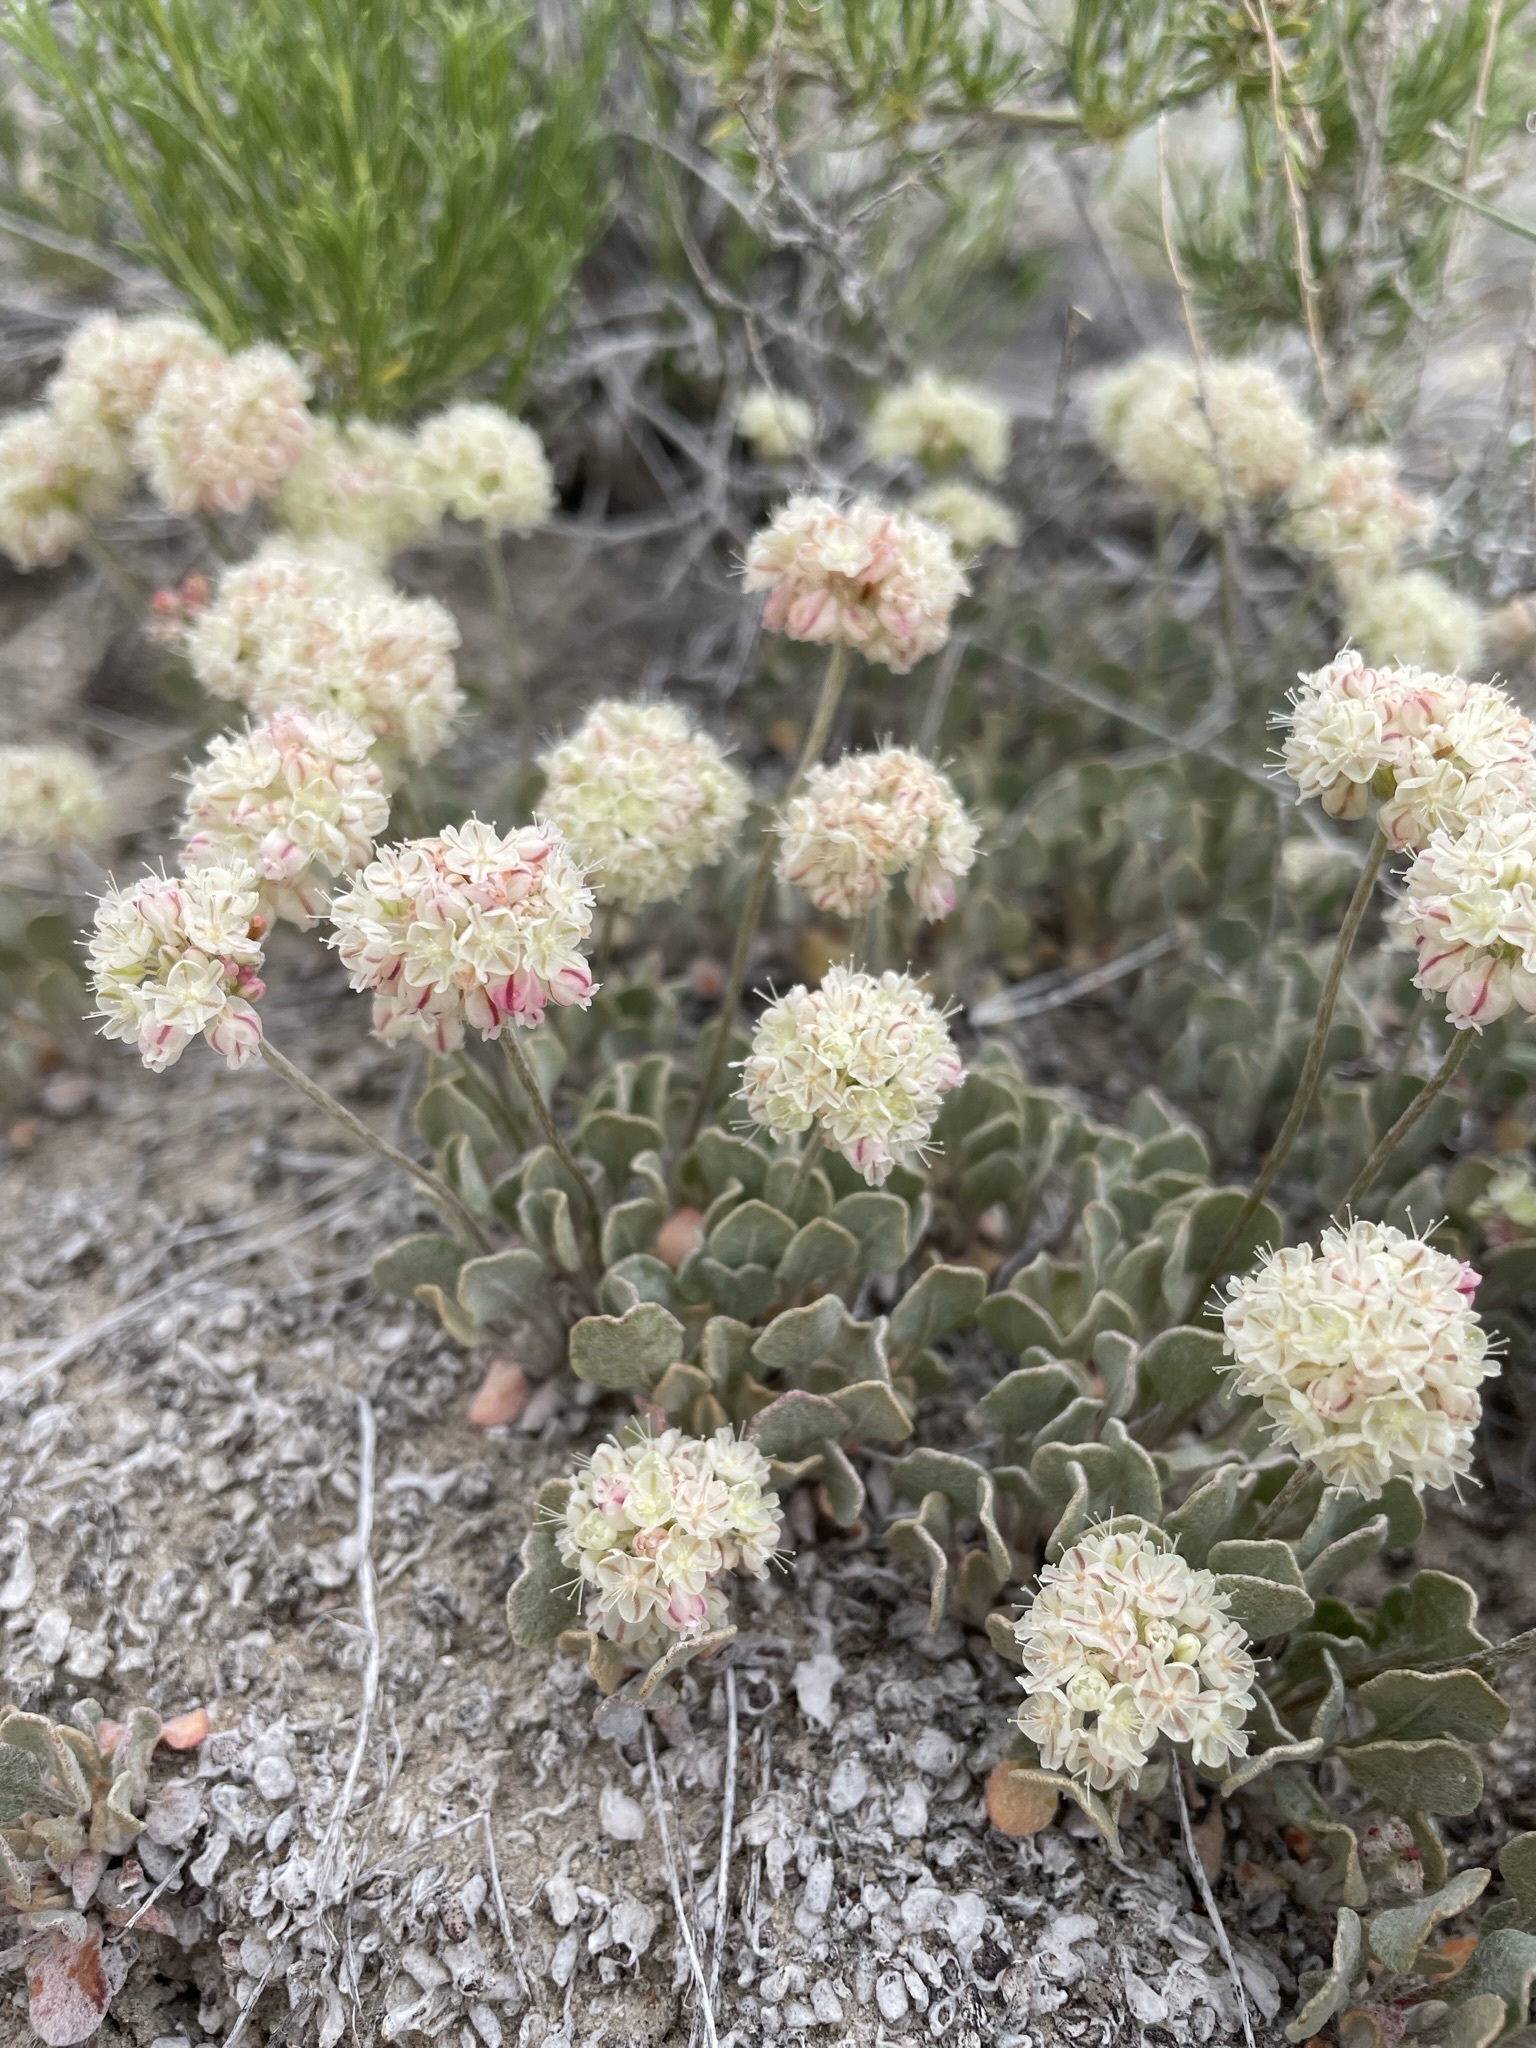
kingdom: Plantae
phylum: Tracheophyta
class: Magnoliopsida
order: Caryophyllales
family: Polygonaceae
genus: Eriogonum
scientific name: Eriogonum ovalifolium
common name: Cushion buckwheat
